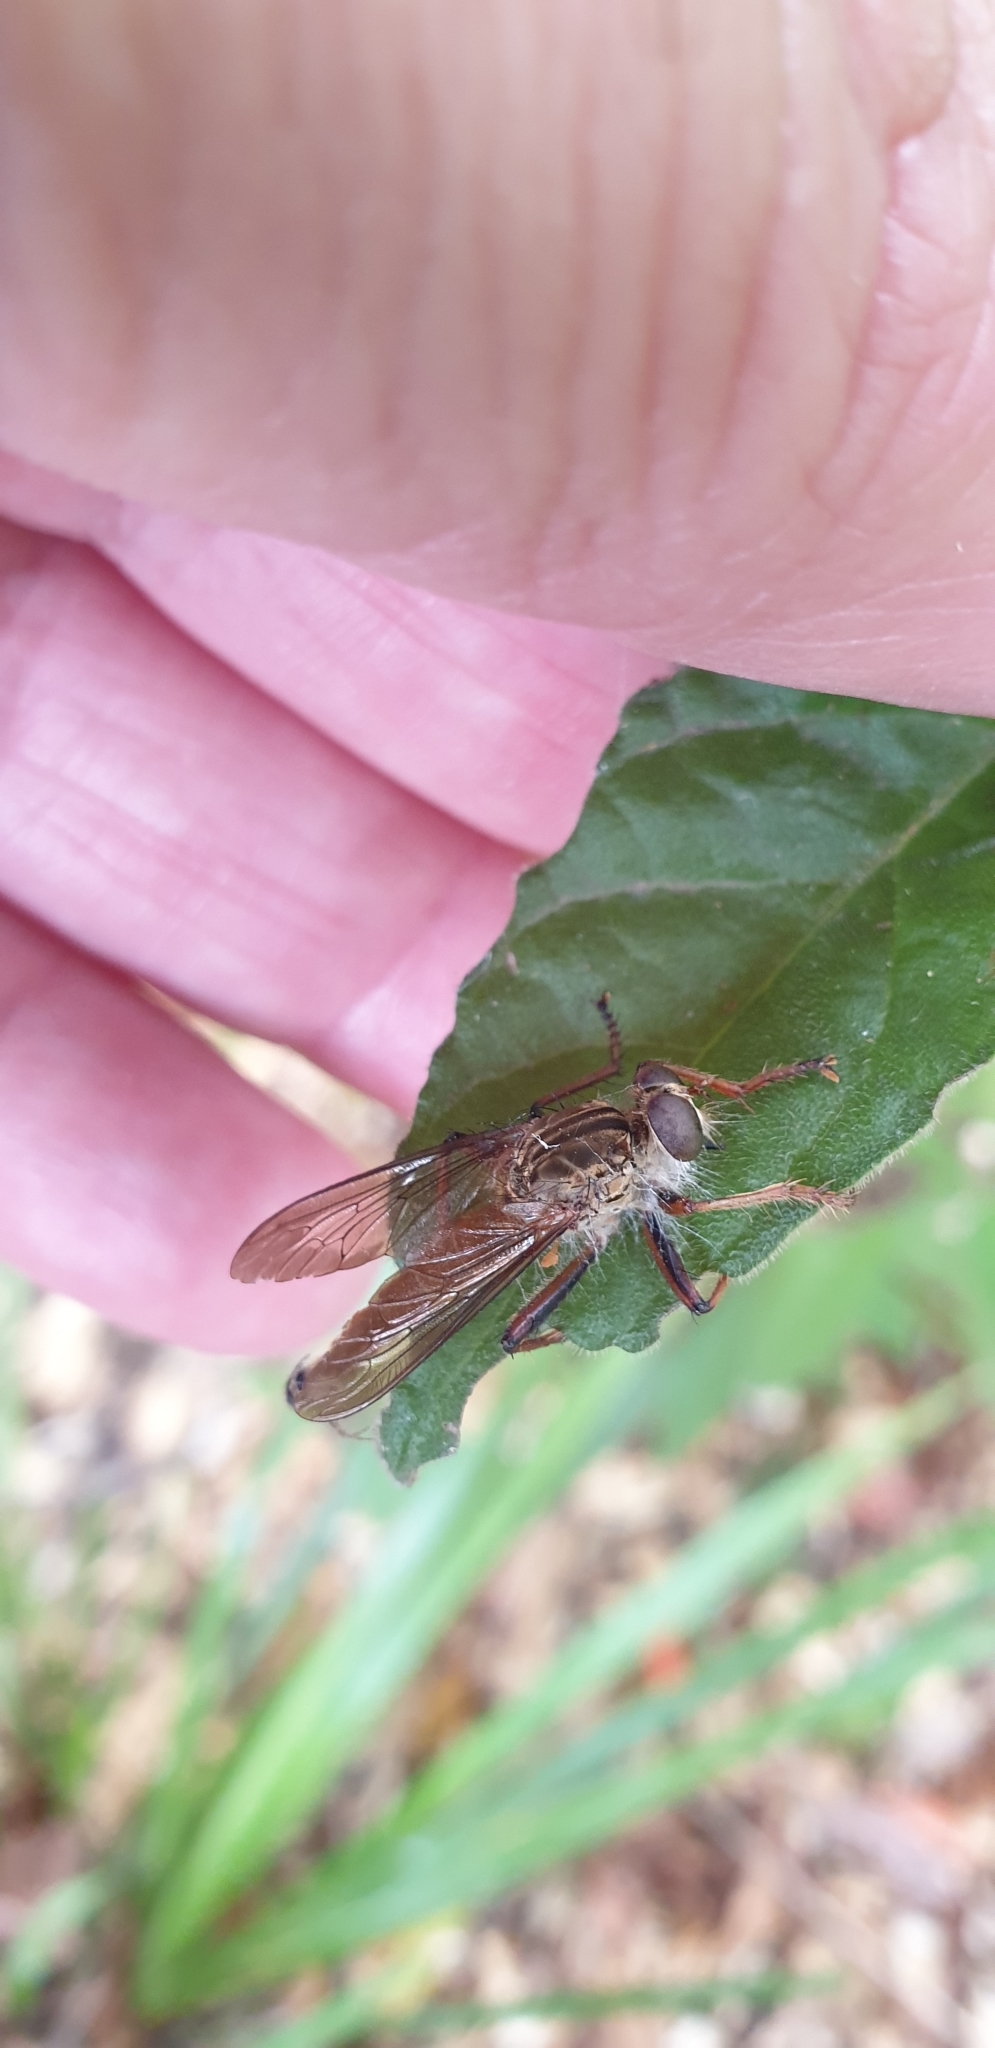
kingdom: Animalia
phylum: Arthropoda
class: Insecta
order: Diptera
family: Asilidae
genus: Dolopus
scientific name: Dolopus simulans
